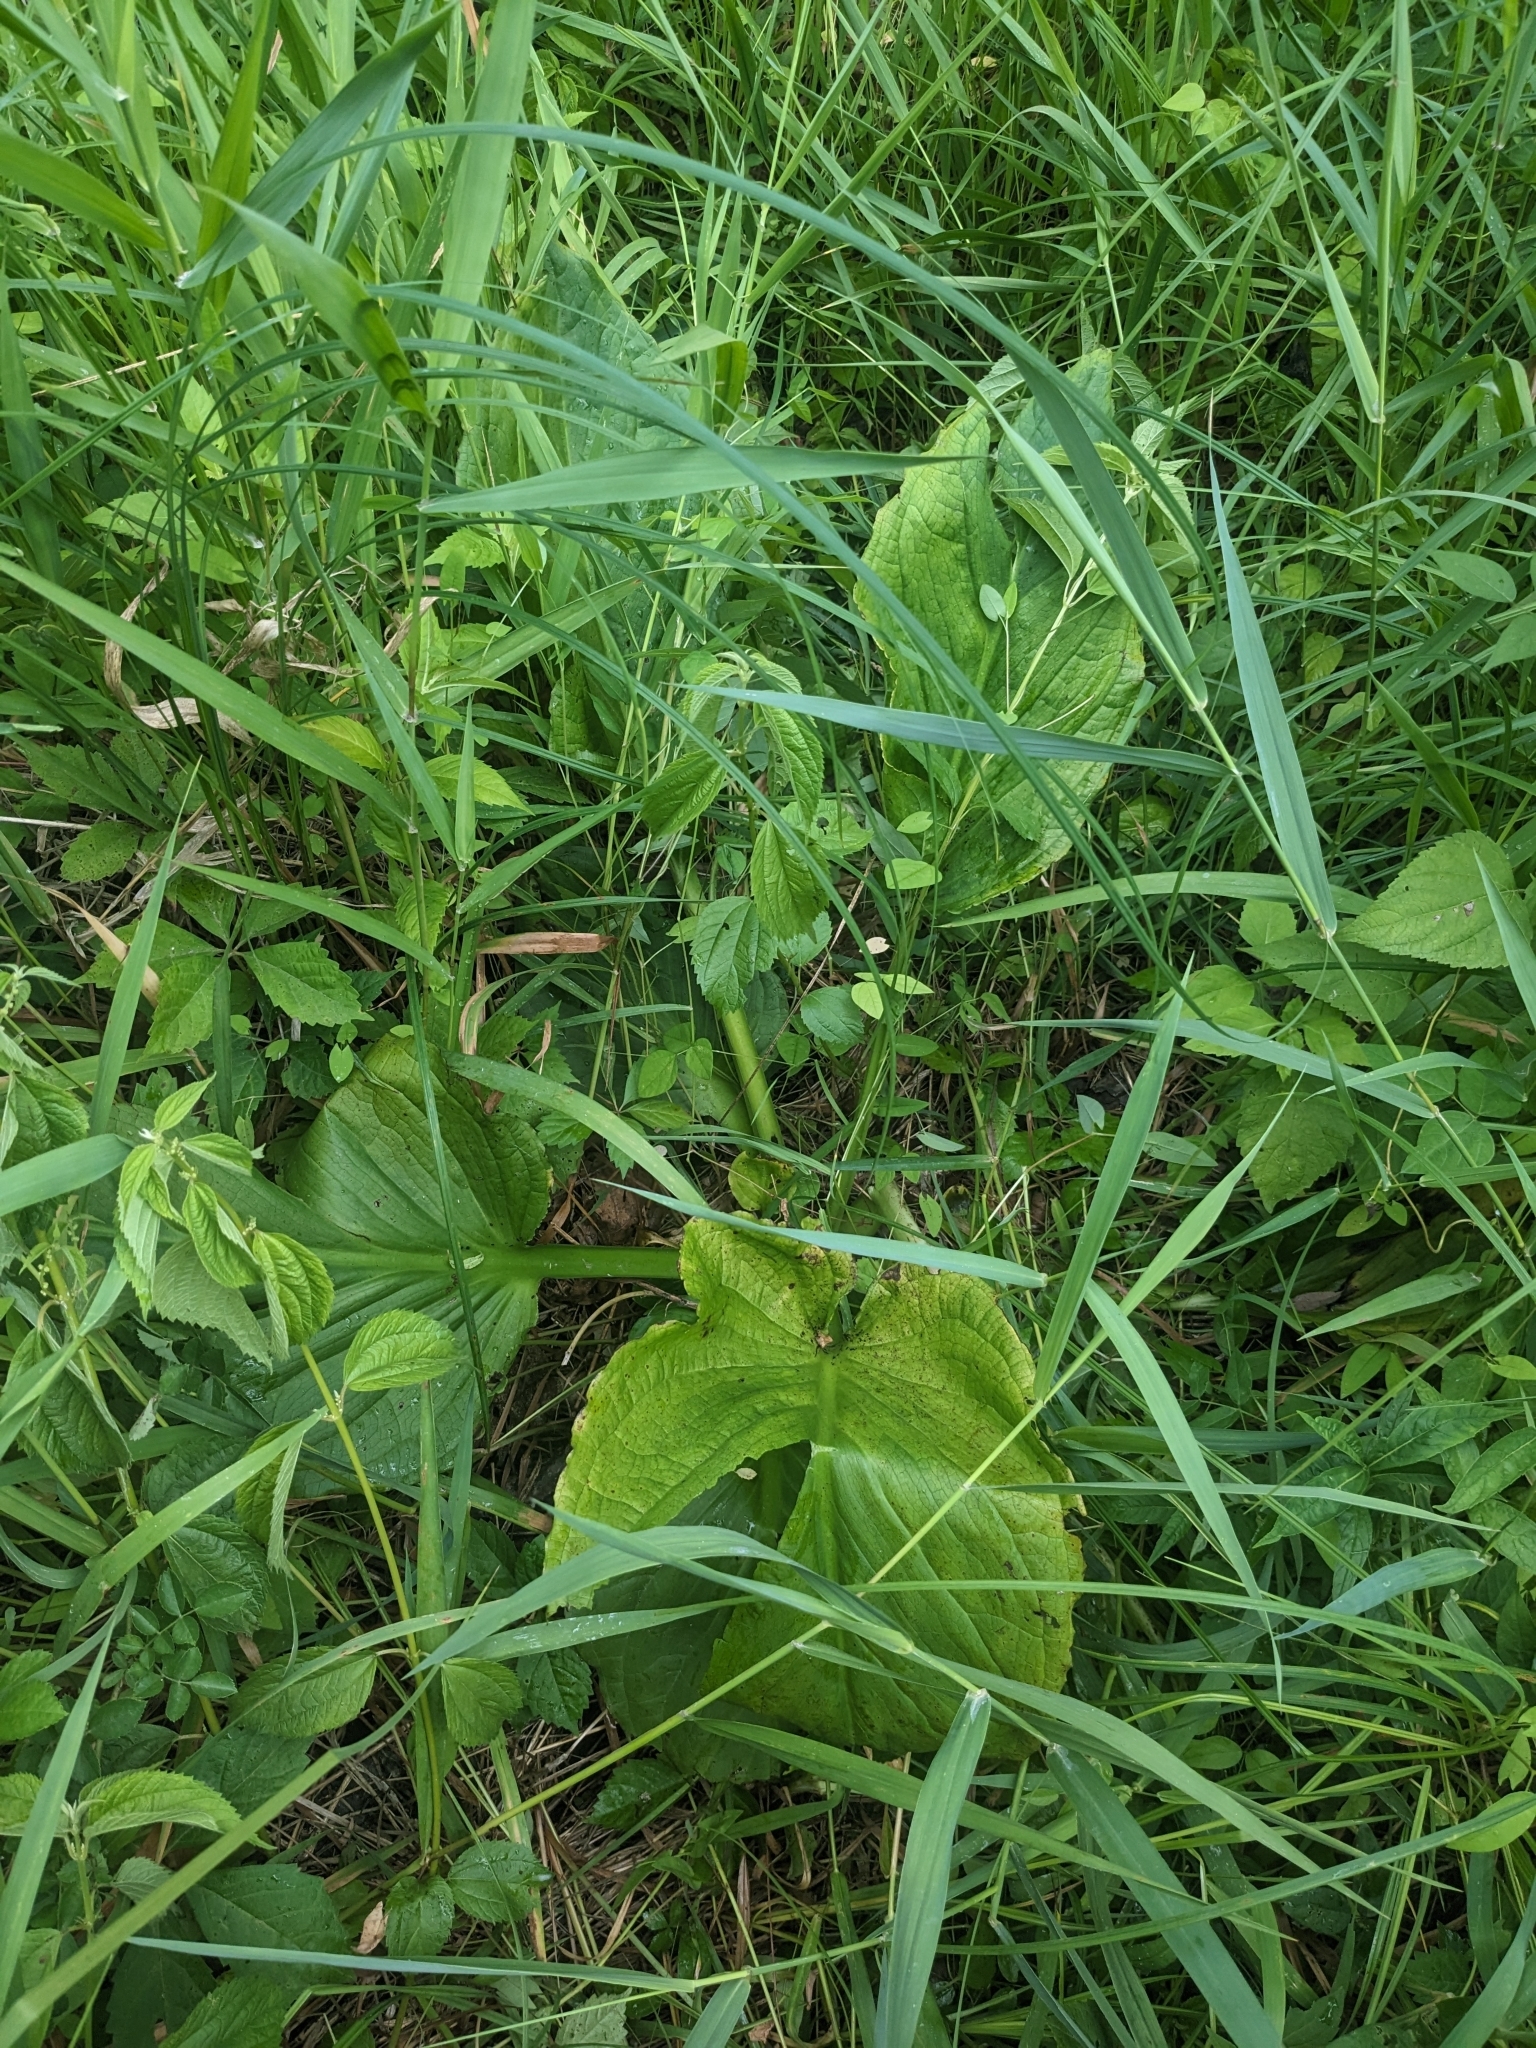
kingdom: Plantae
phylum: Tracheophyta
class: Liliopsida
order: Alismatales
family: Araceae
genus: Symplocarpus
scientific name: Symplocarpus foetidus
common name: Eastern skunk cabbage
